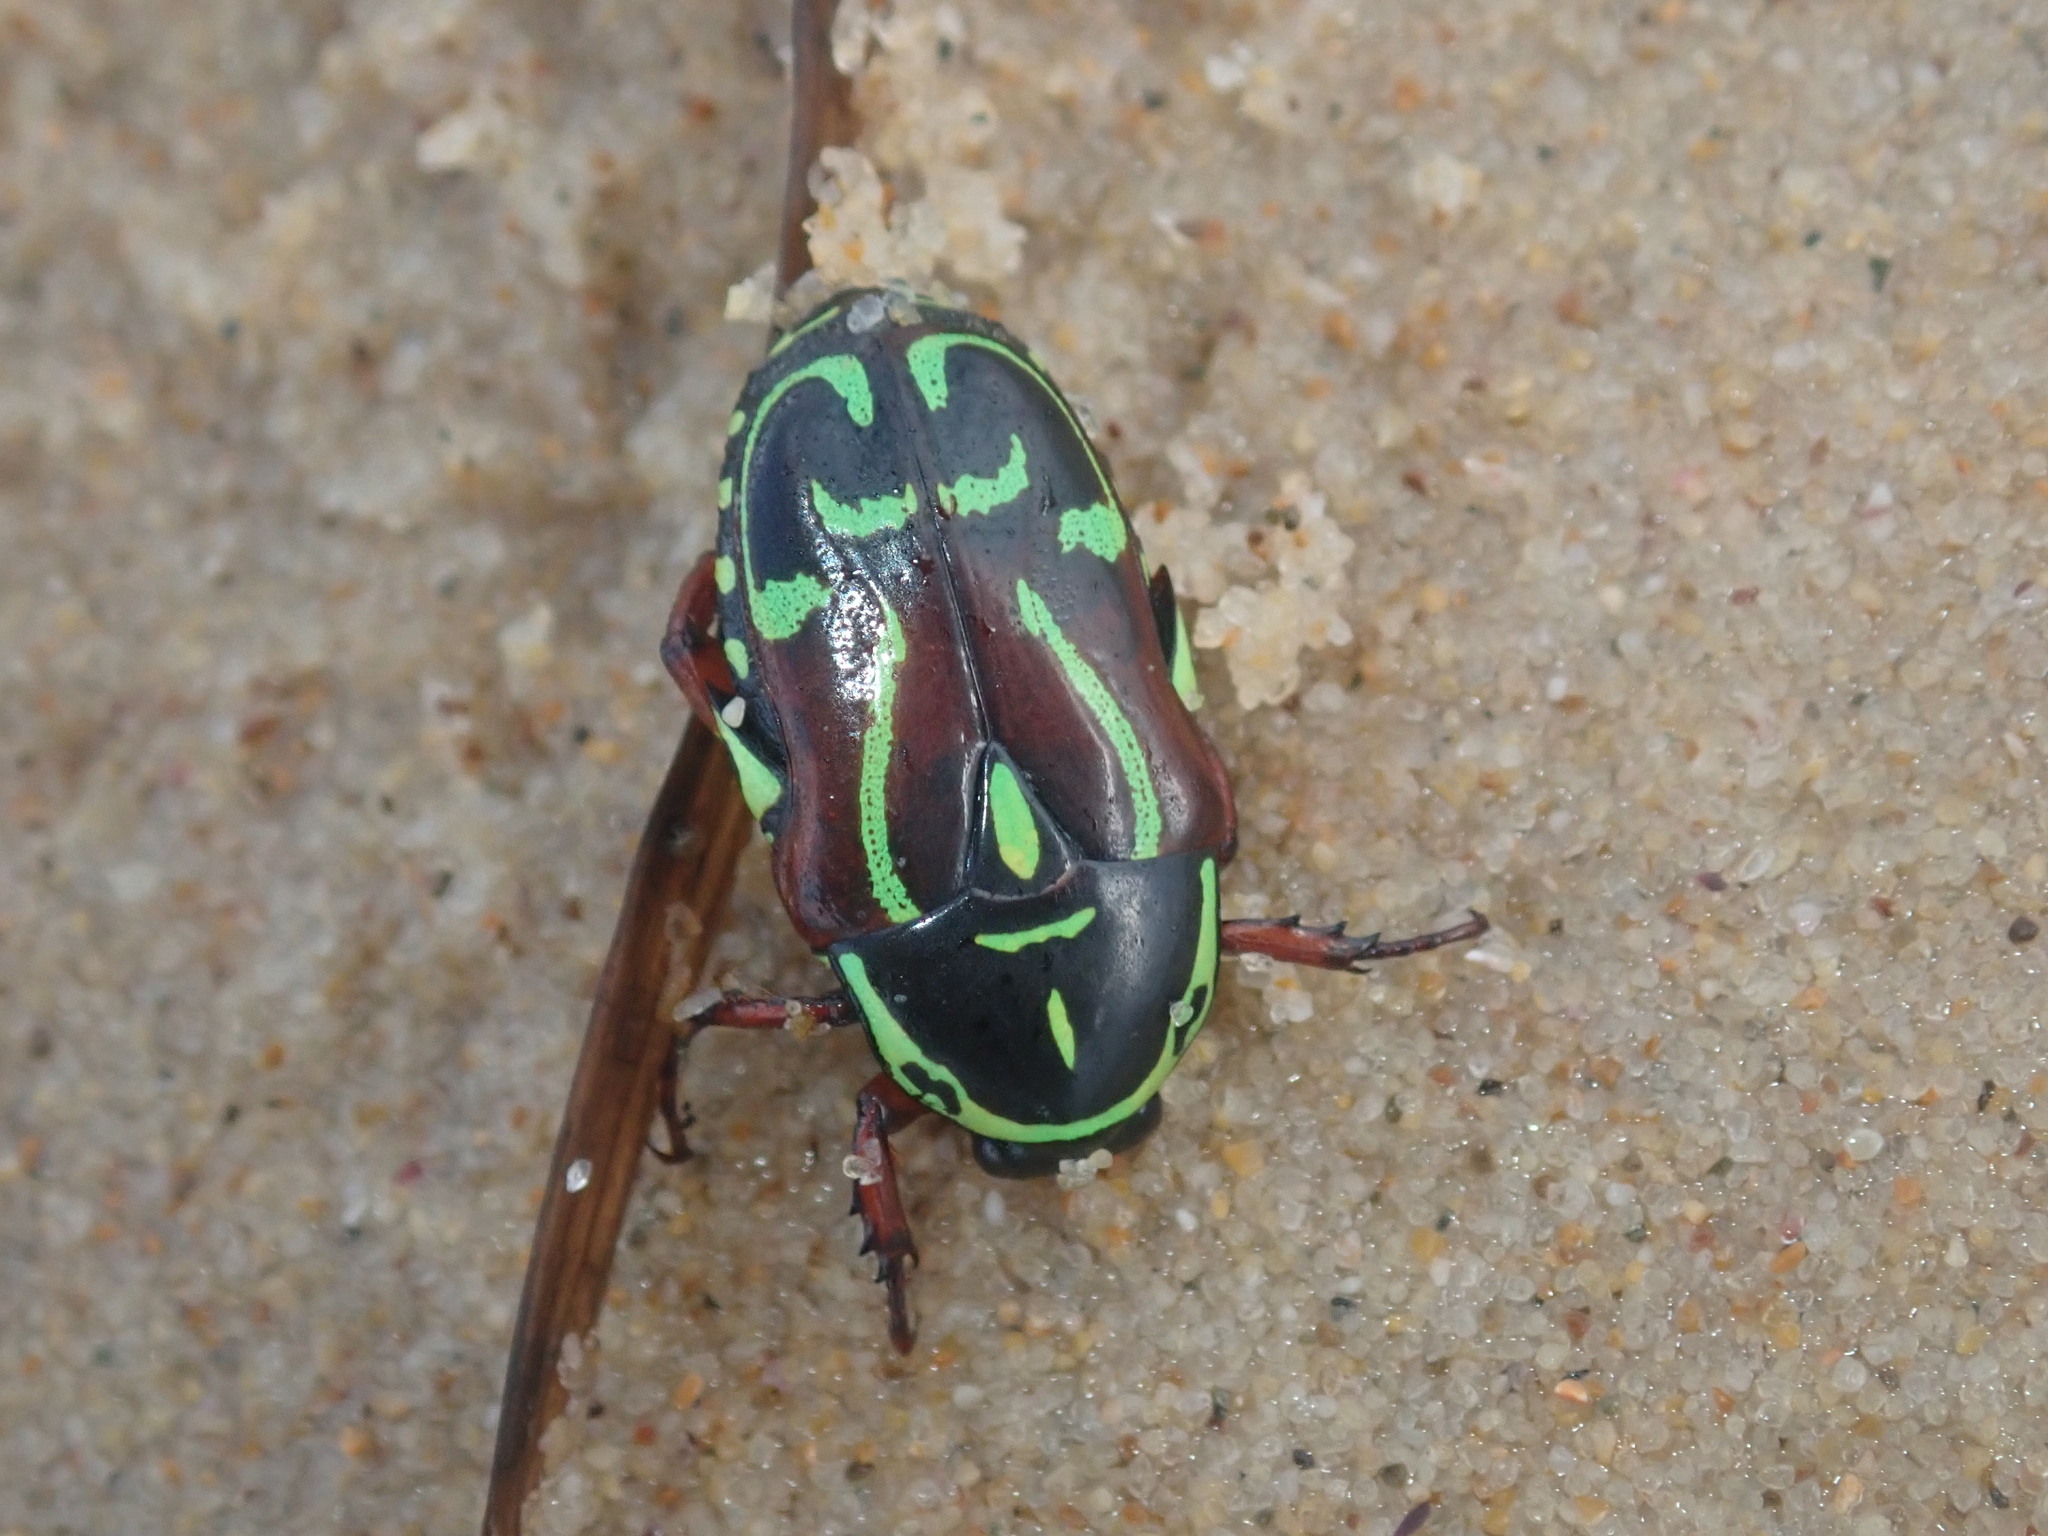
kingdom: Animalia
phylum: Arthropoda
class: Insecta
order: Coleoptera
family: Scarabaeidae
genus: Eupoecila
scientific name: Eupoecila australasiae
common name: Fiddler beetle
